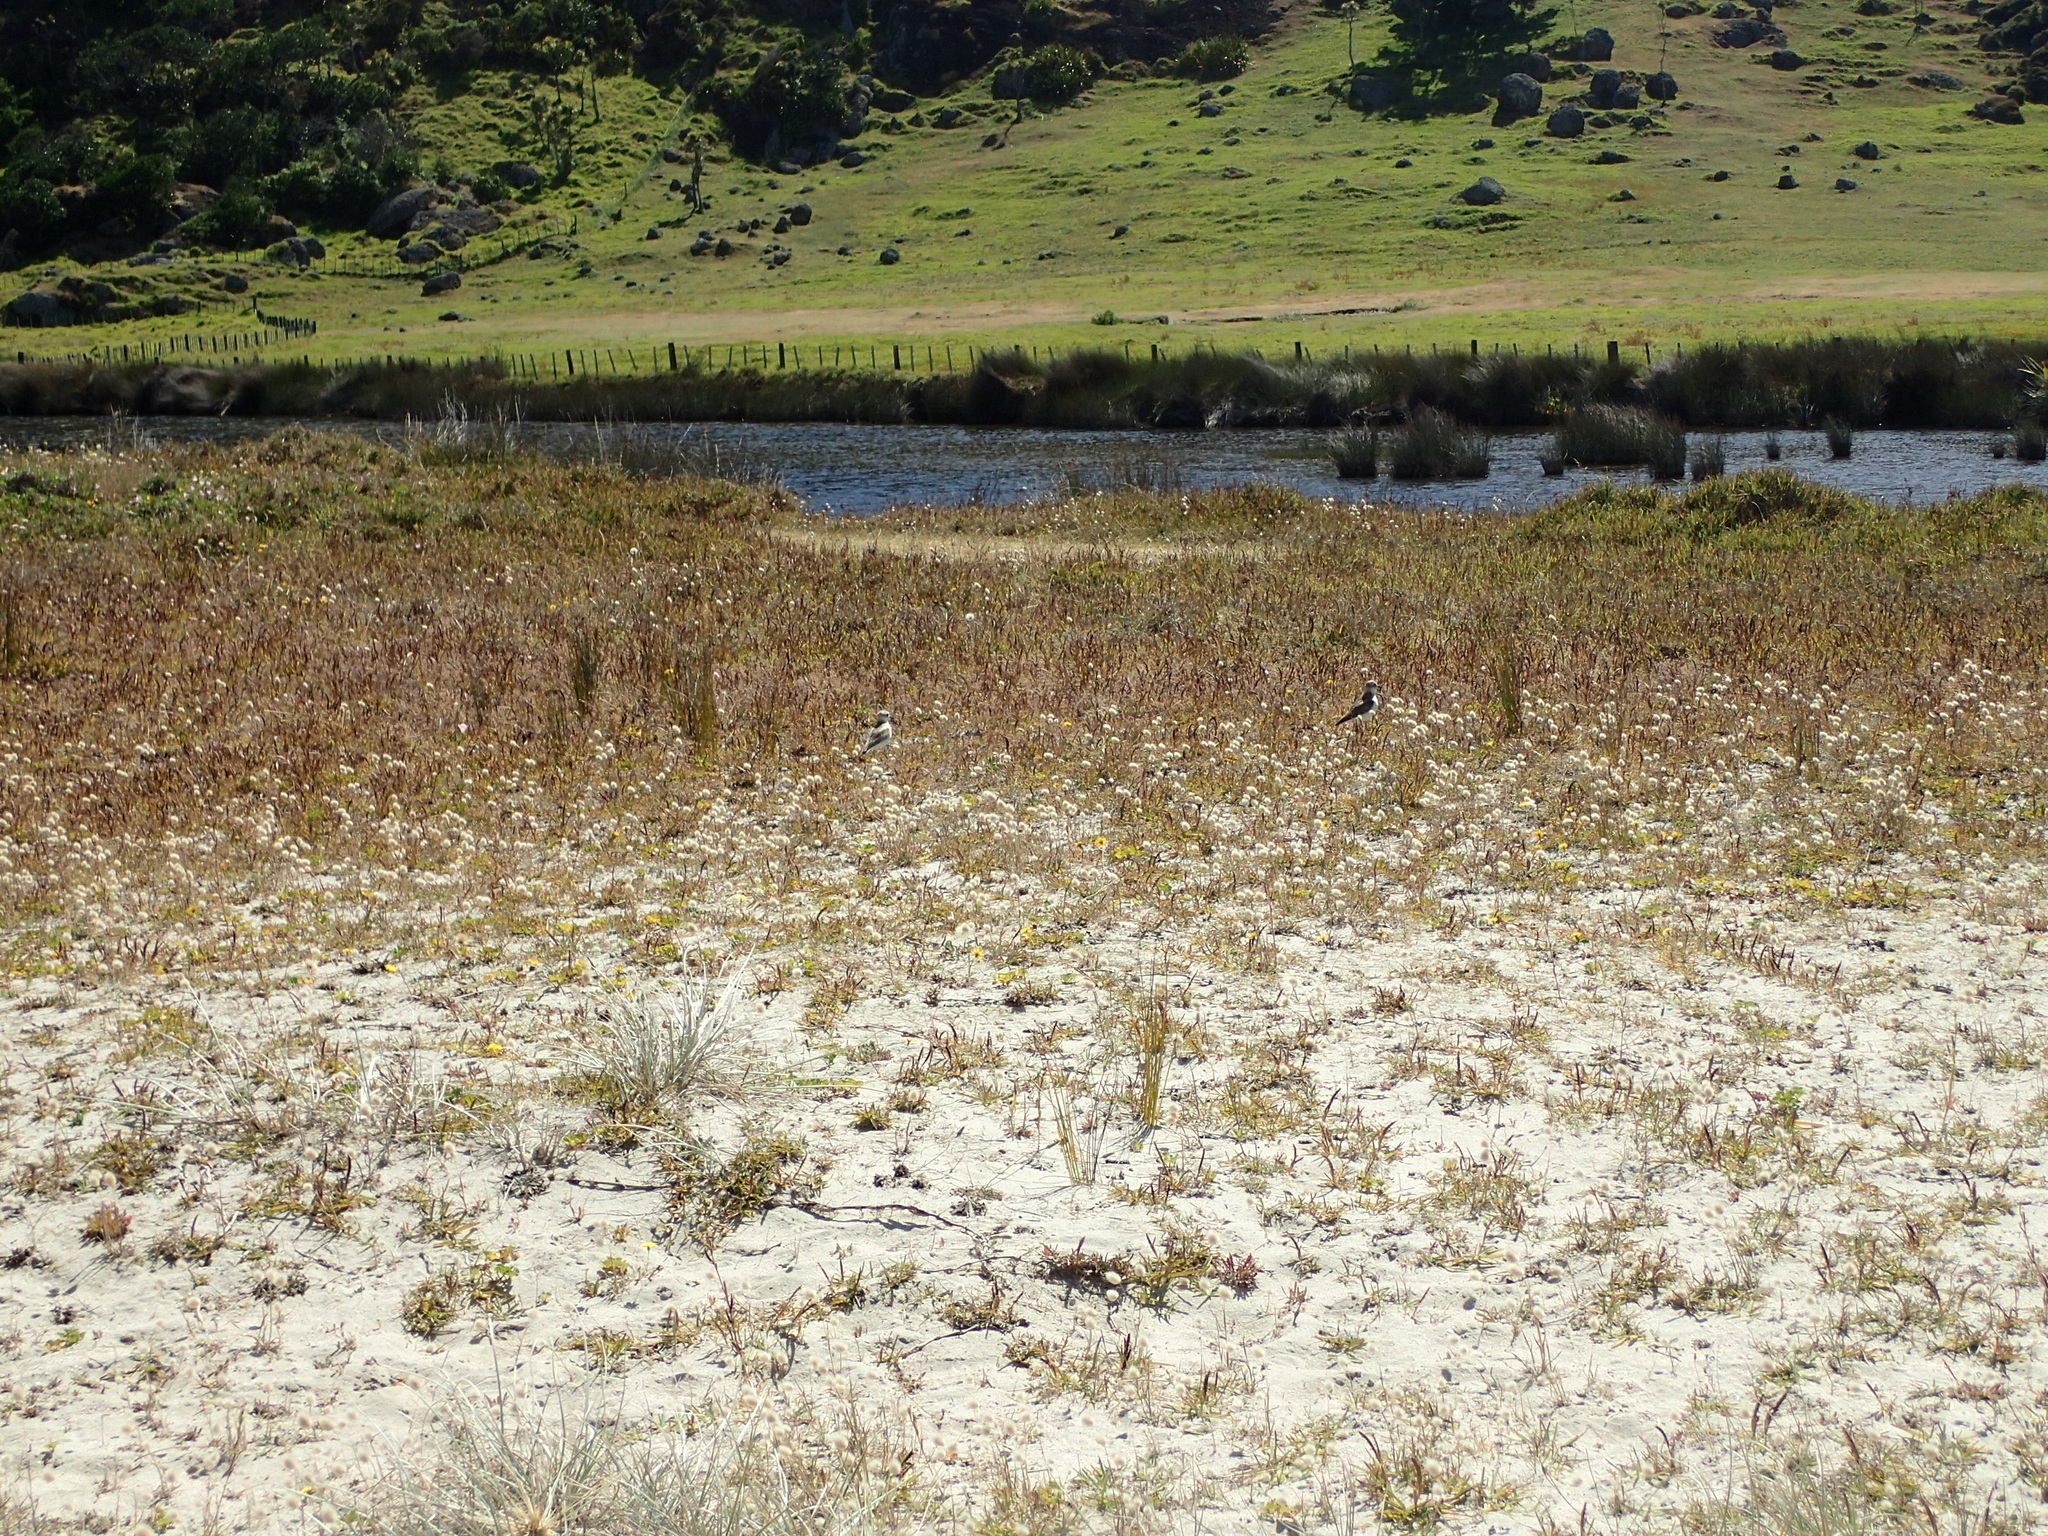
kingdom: Animalia
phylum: Chordata
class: Aves
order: Charadriiformes
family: Charadriidae
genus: Anarhynchus
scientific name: Anarhynchus
